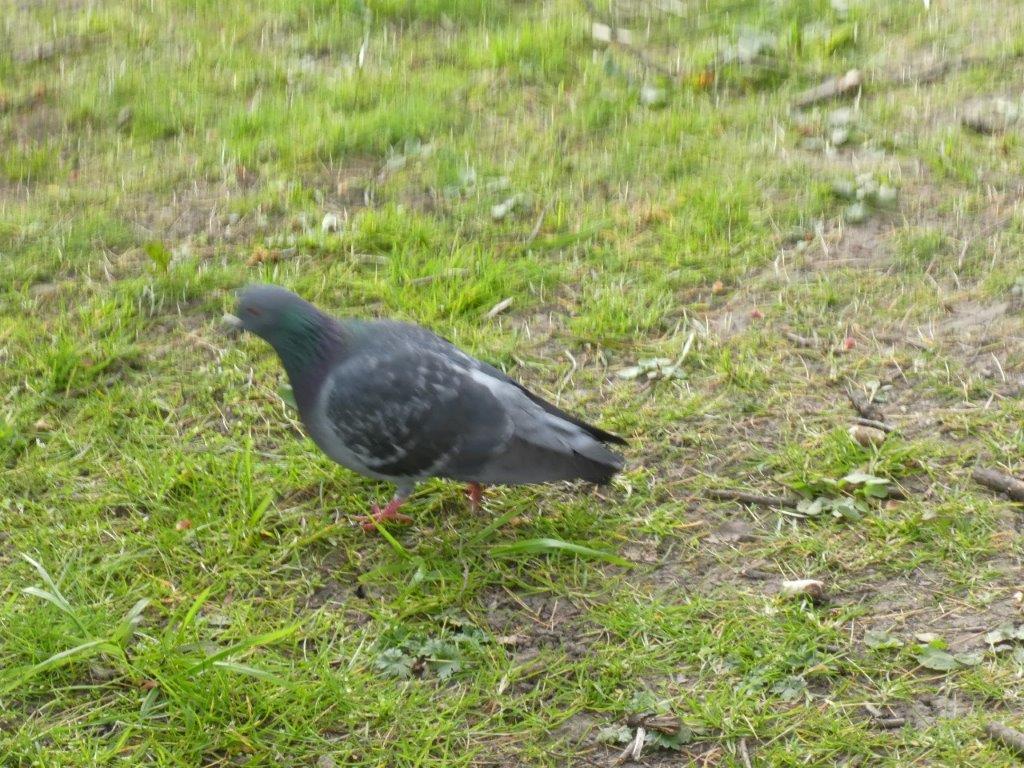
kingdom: Animalia
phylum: Chordata
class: Aves
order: Columbiformes
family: Columbidae
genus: Columba
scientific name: Columba livia
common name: Rock pigeon
